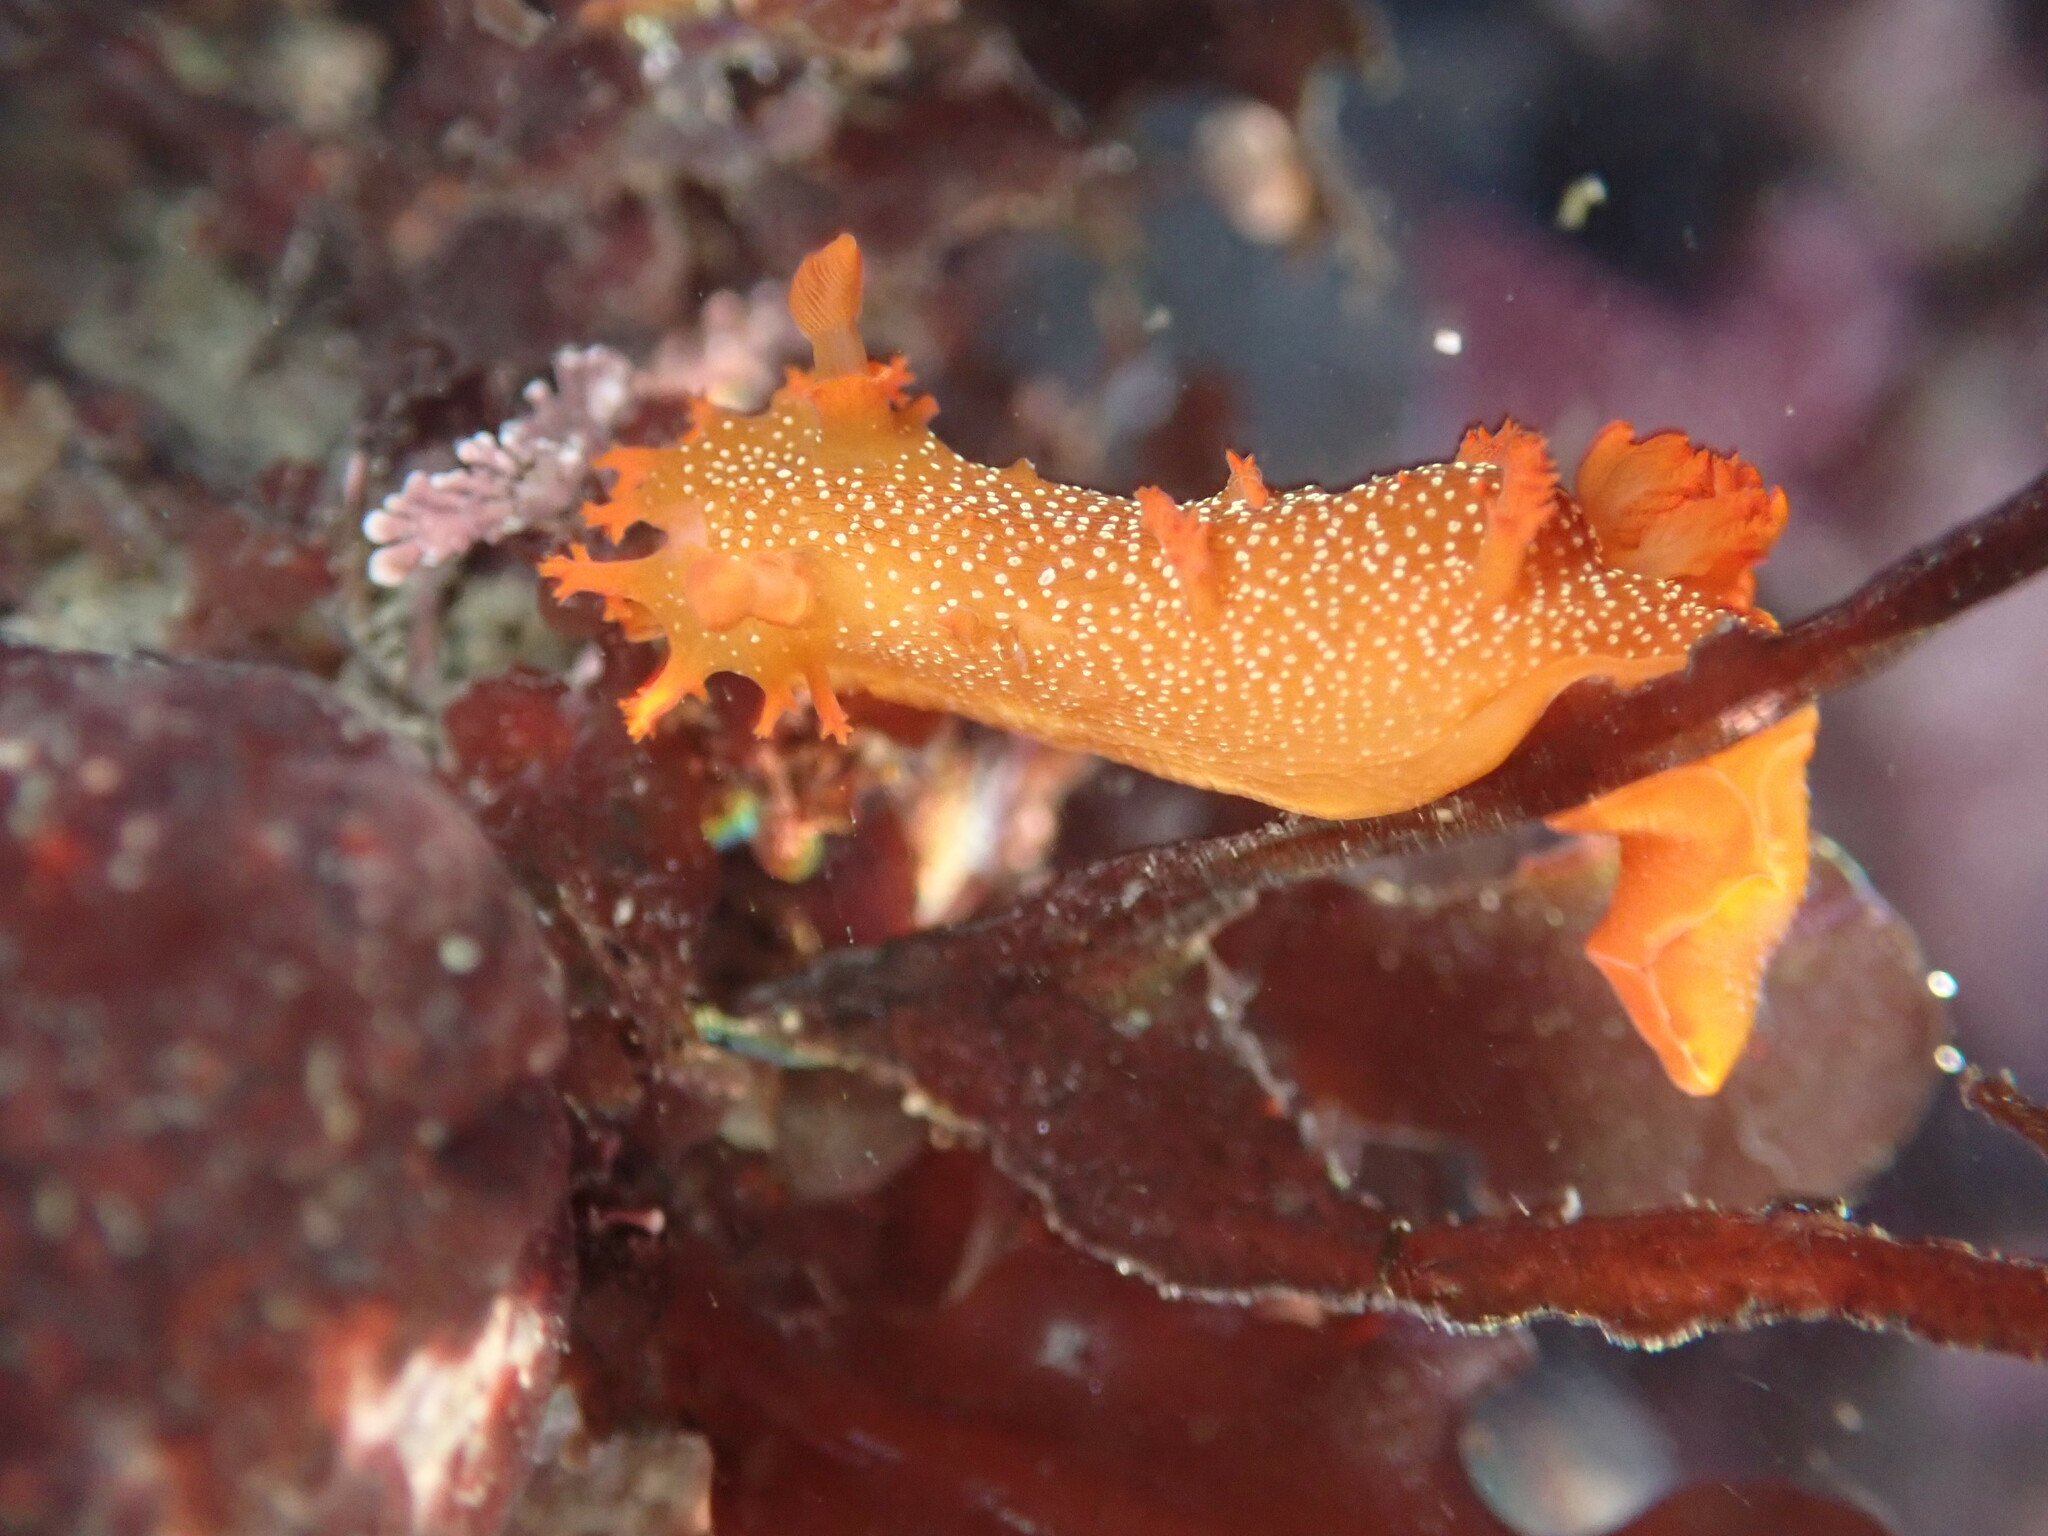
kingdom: Animalia
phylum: Mollusca
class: Gastropoda
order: Nudibranchia
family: Polyceridae
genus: Triopha
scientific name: Triopha maculata
